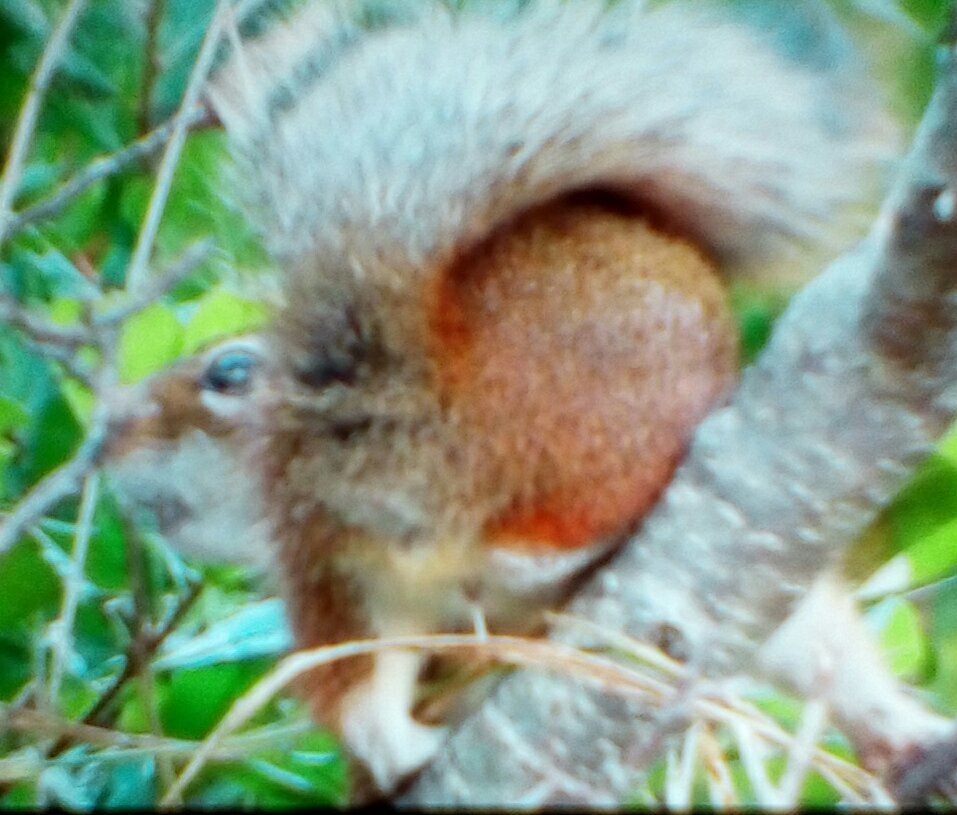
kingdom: Animalia
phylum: Chordata
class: Mammalia
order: Rodentia
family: Sciuridae
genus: Tamiasciurus
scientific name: Tamiasciurus hudsonicus
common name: Red squirrel
